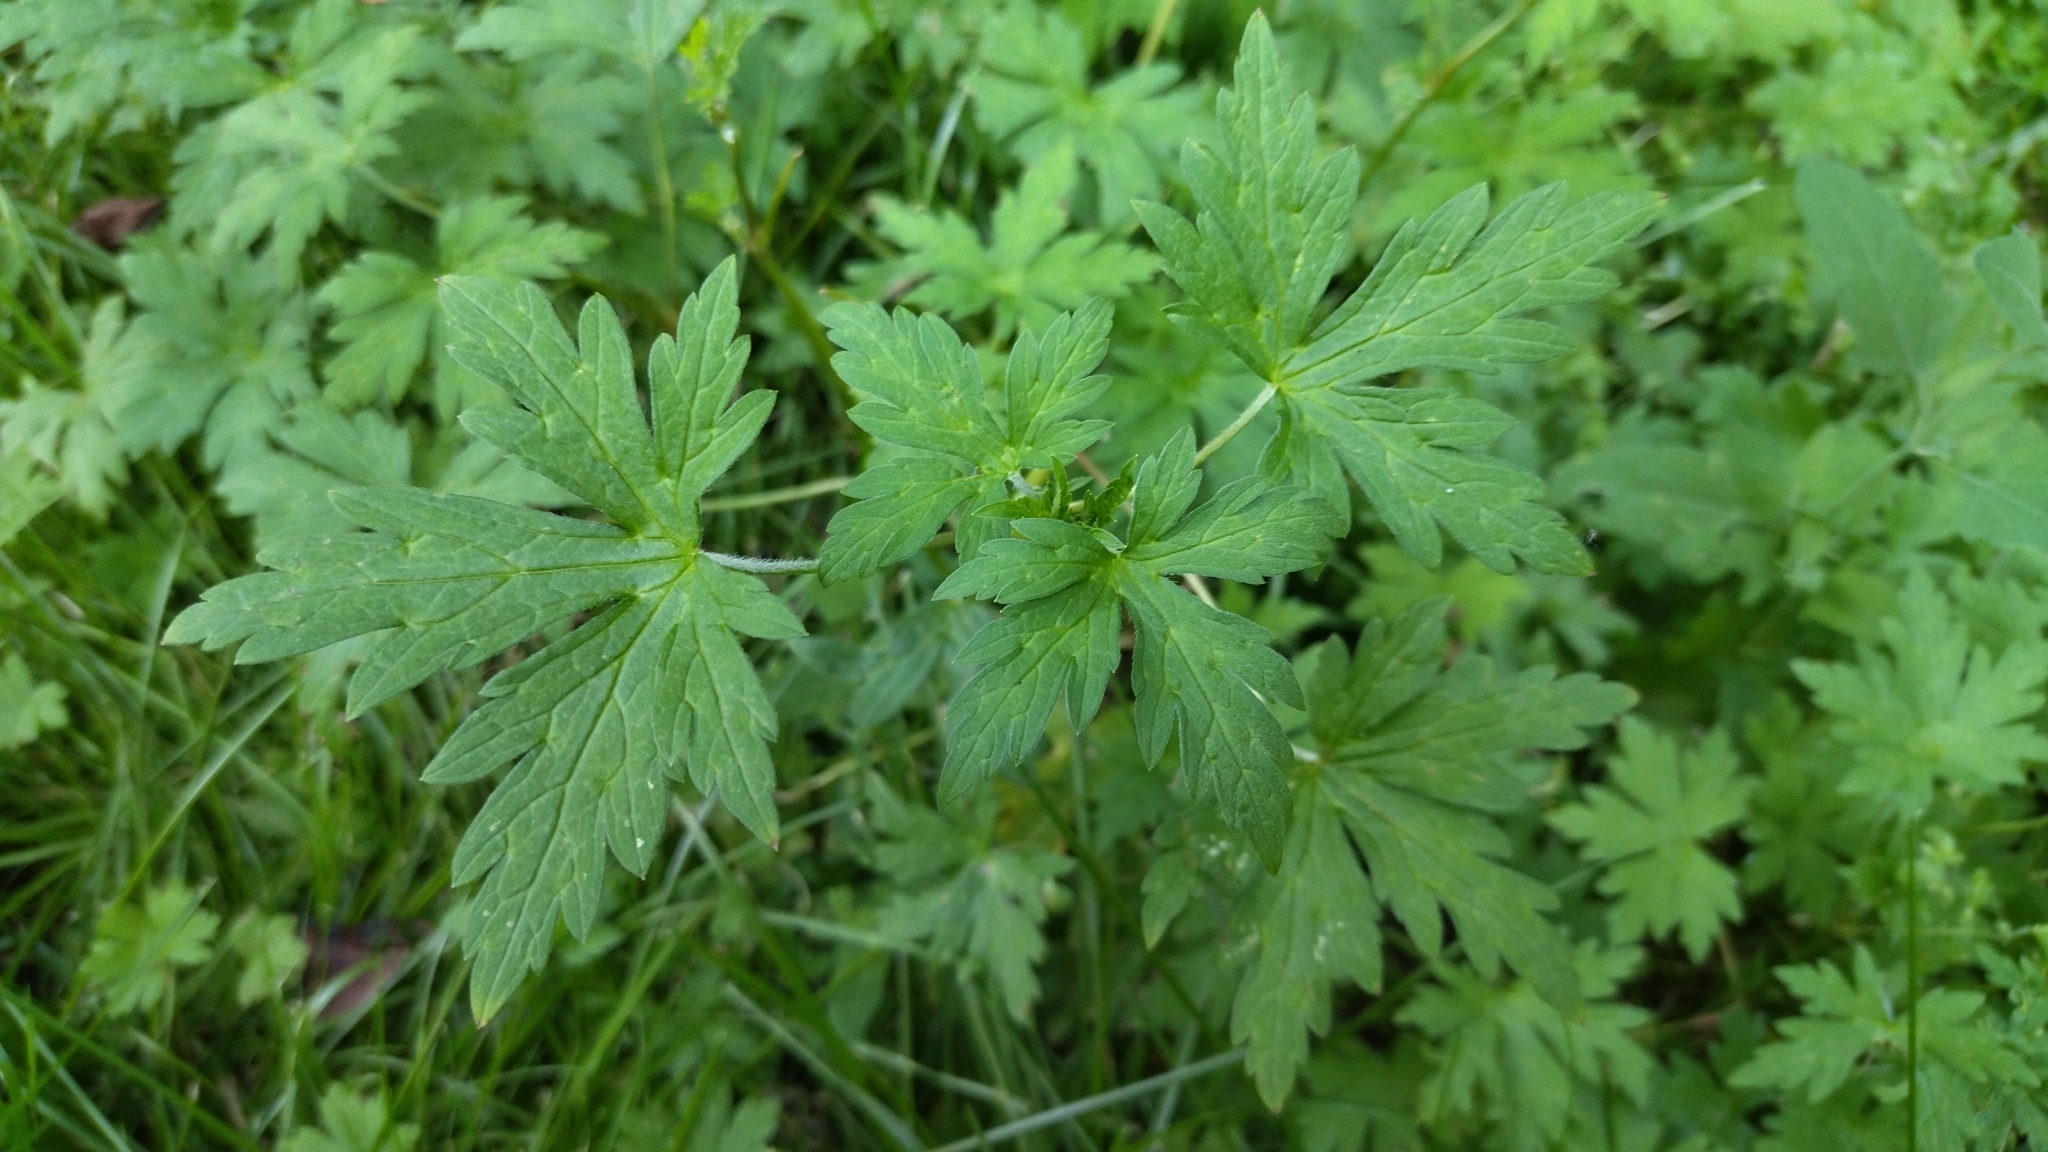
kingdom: Plantae
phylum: Tracheophyta
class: Magnoliopsida
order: Geraniales
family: Geraniaceae
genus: Geranium
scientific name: Geranium sibiricum
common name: Siberian crane's-bill
